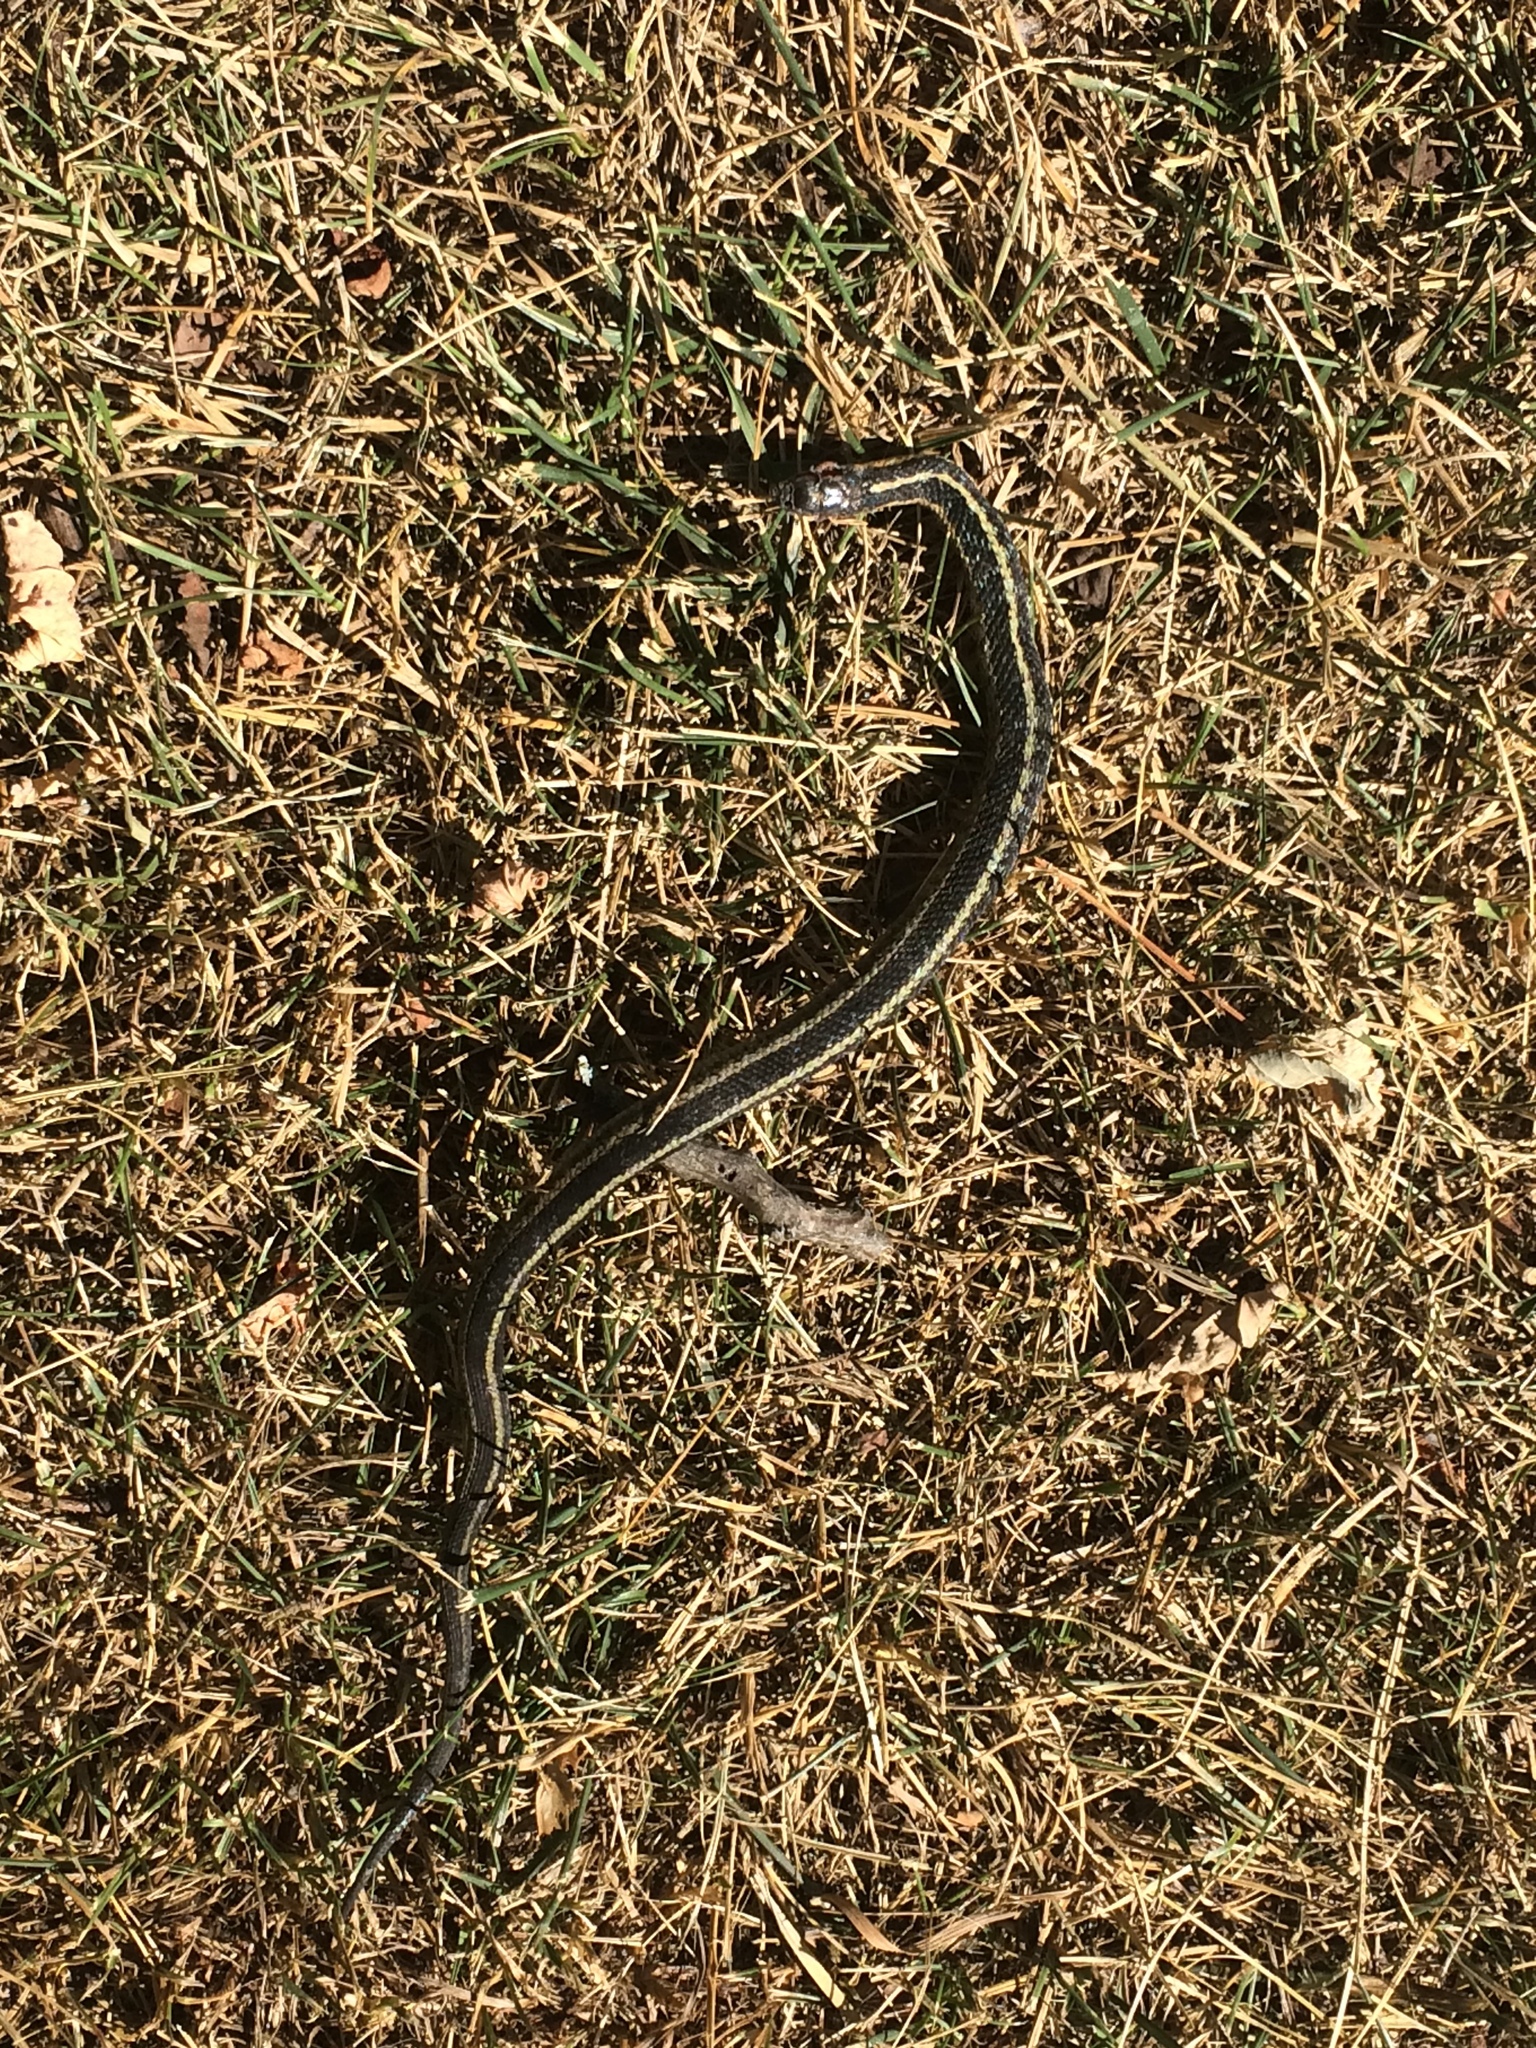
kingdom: Animalia
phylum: Chordata
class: Squamata
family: Colubridae
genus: Thamnophis
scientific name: Thamnophis sirtalis
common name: Common garter snake
